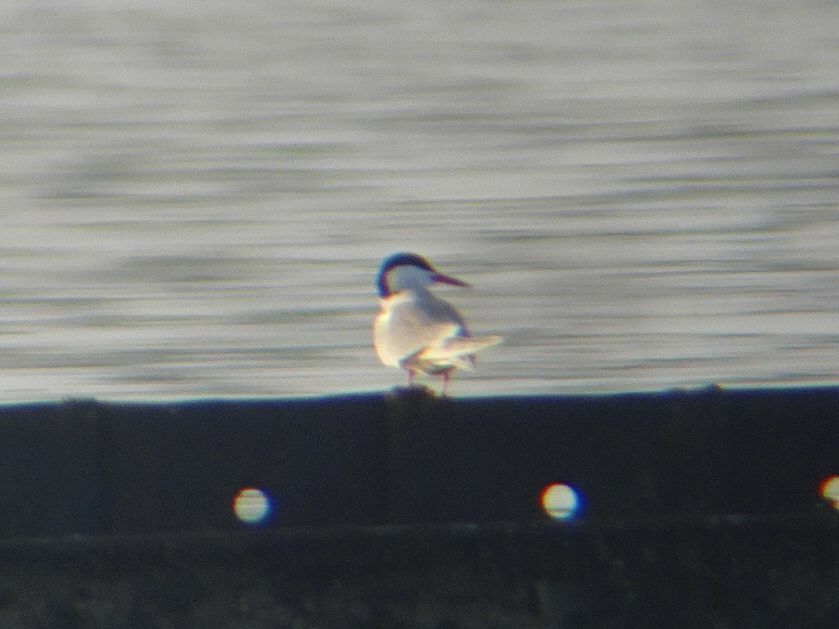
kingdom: Animalia
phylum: Chordata
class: Aves
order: Charadriiformes
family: Laridae
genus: Sterna
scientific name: Sterna hirundo
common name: Common tern
